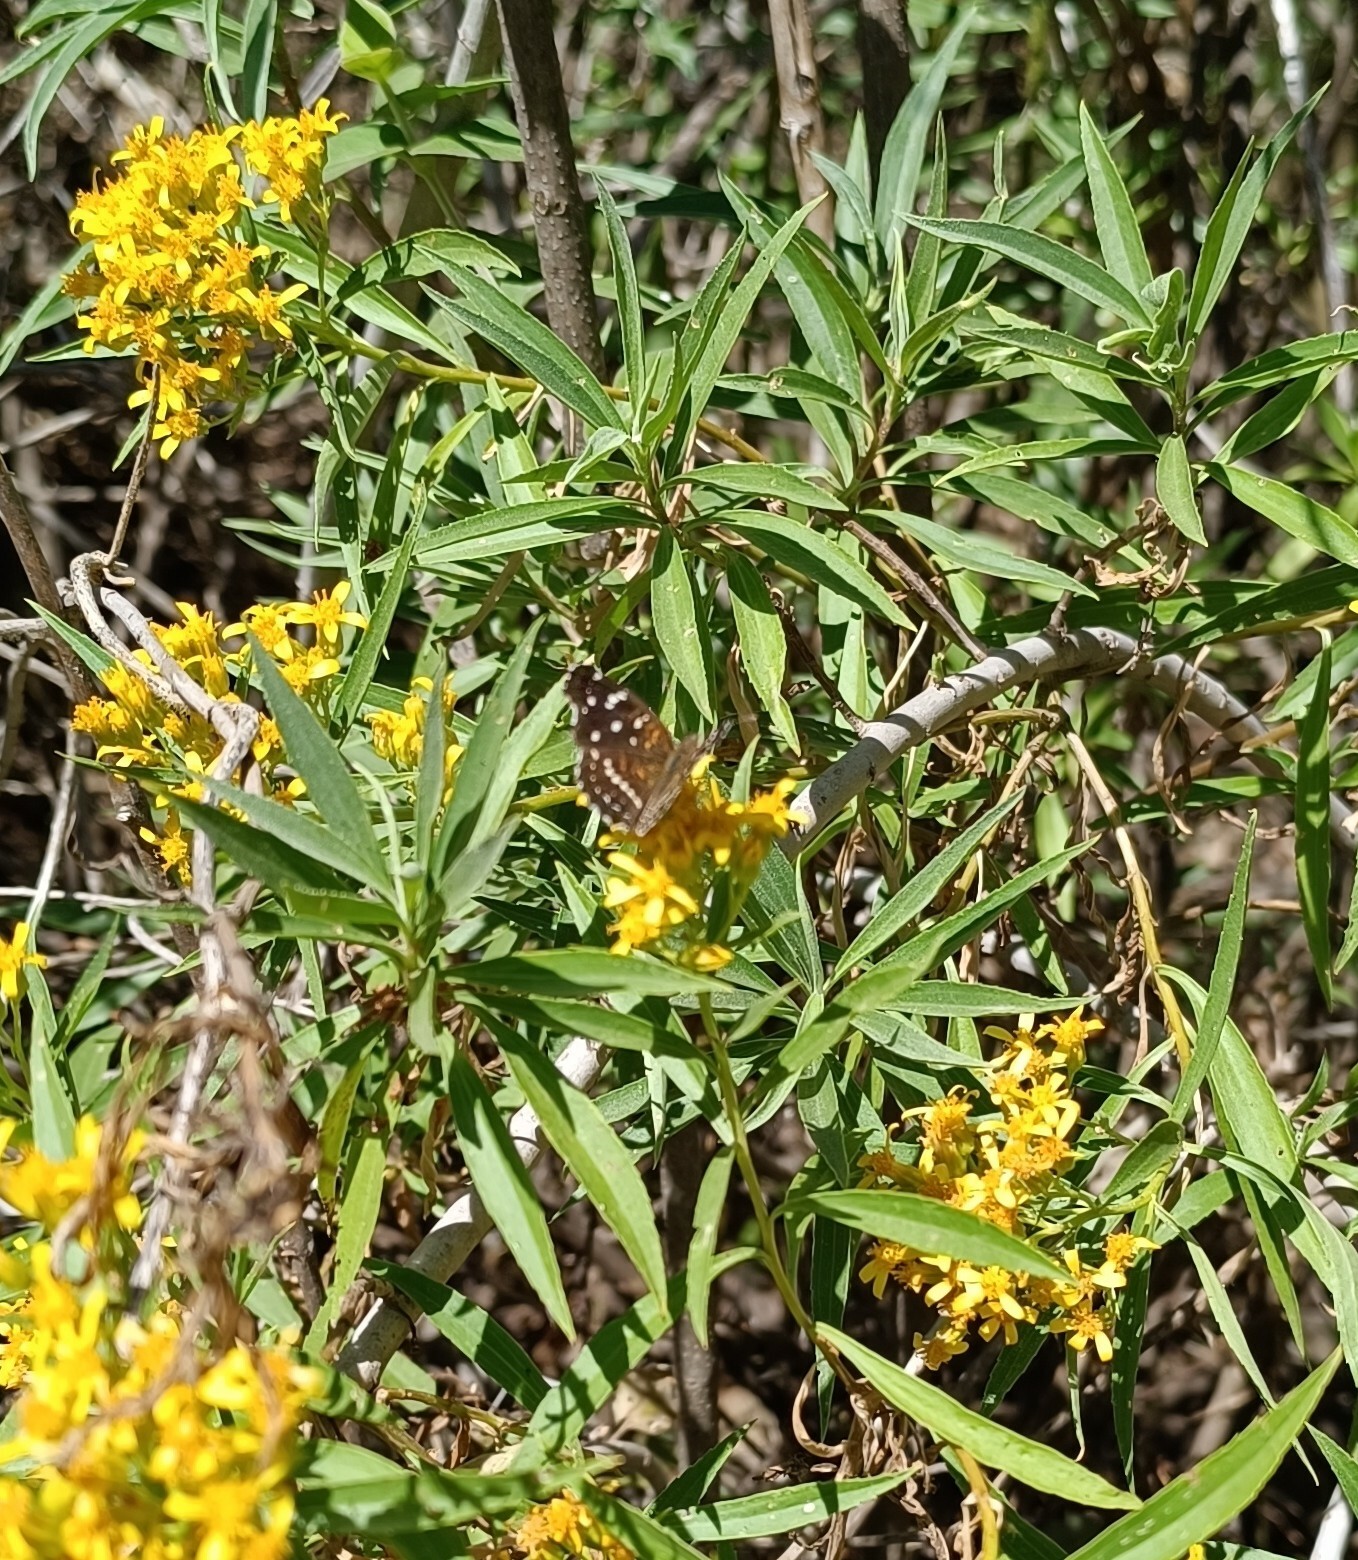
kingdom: Animalia
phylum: Arthropoda
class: Insecta
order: Lepidoptera
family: Nymphalidae
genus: Anthanassa
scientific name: Anthanassa texana
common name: Texan crescent
